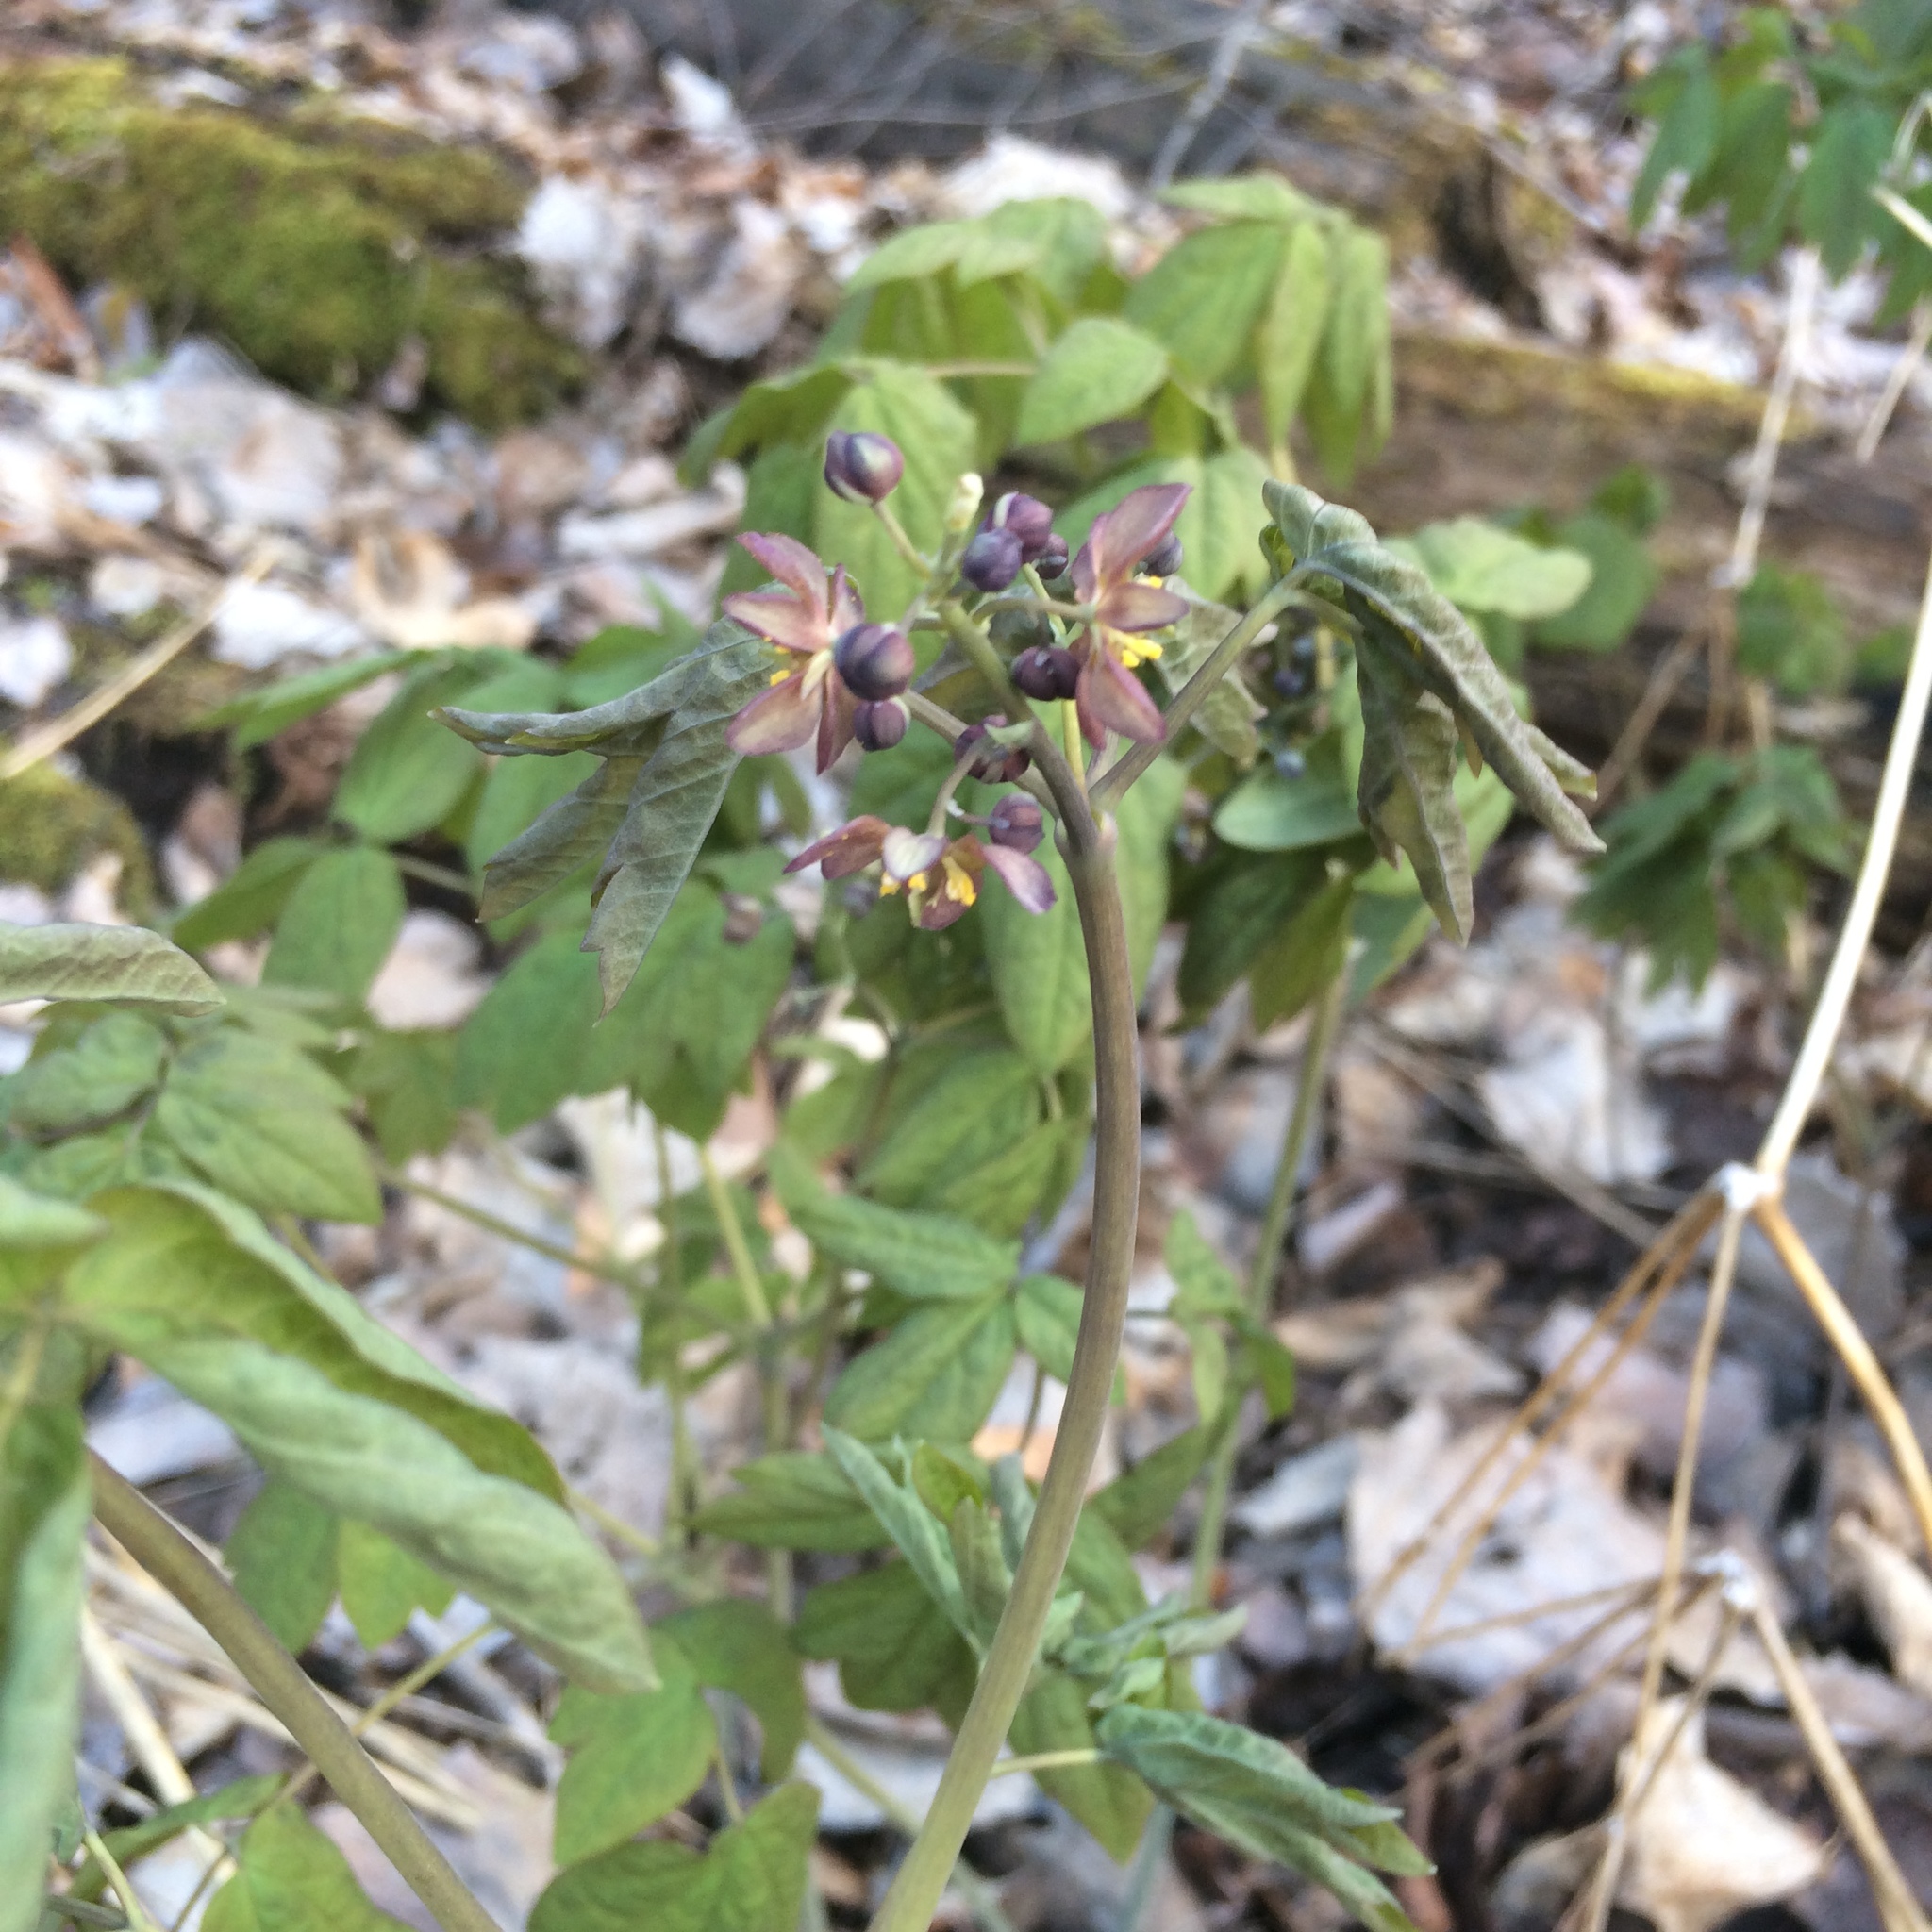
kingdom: Plantae
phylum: Tracheophyta
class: Magnoliopsida
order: Ranunculales
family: Berberidaceae
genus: Caulophyllum
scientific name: Caulophyllum giganteum
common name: Blue cohosh
